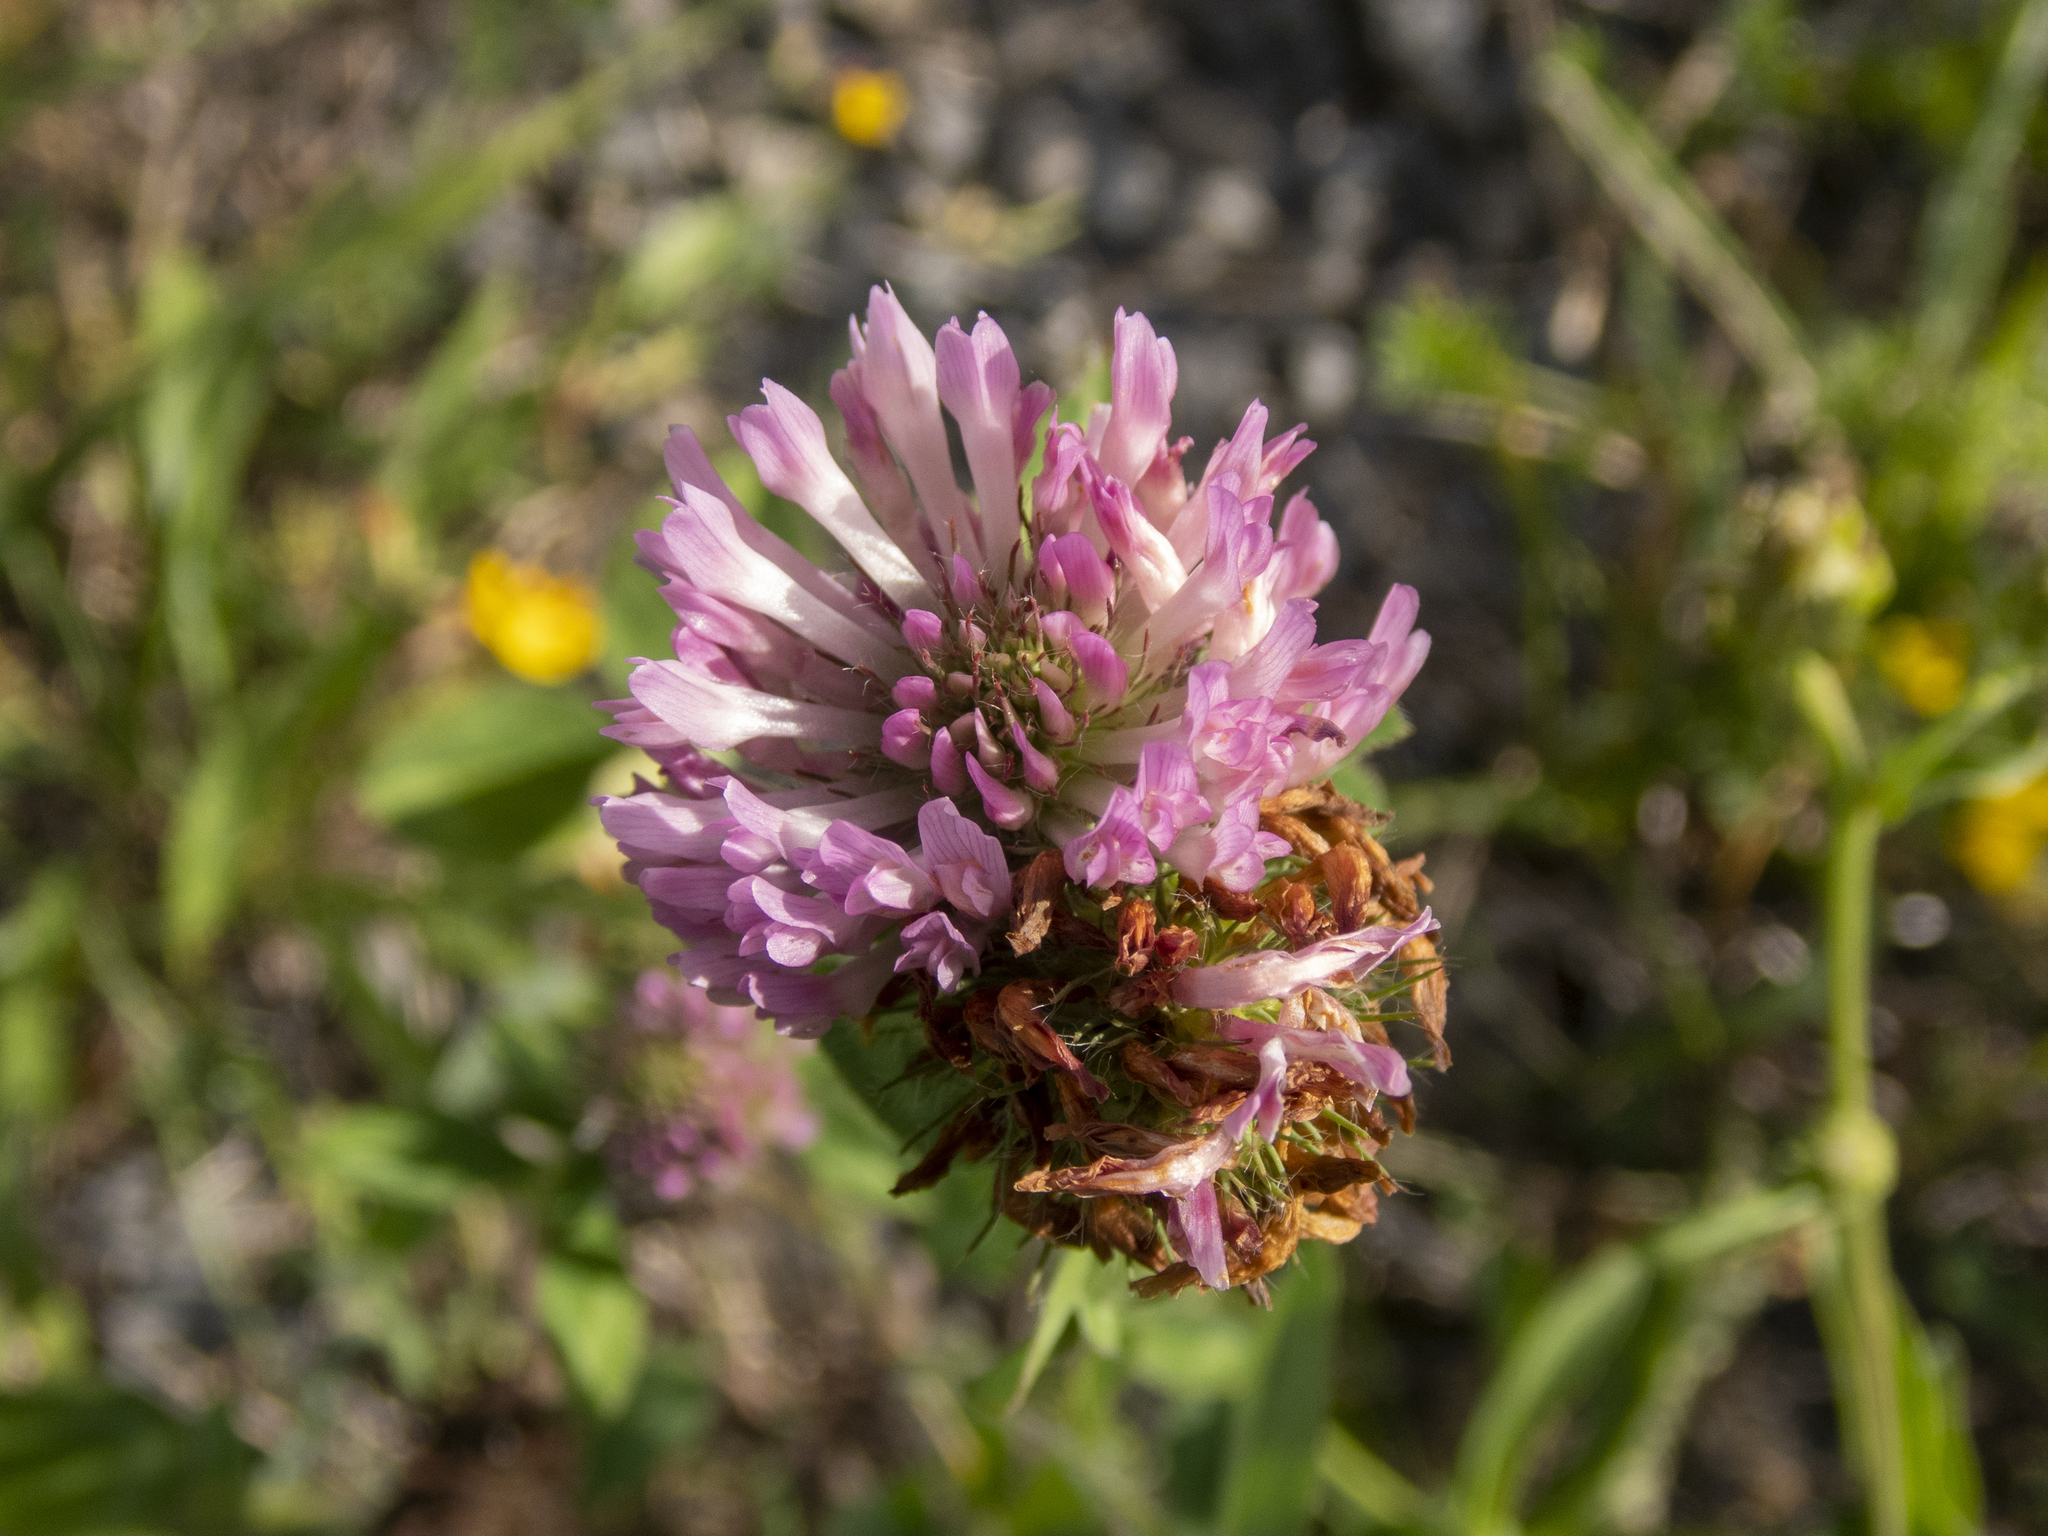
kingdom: Plantae
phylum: Tracheophyta
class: Magnoliopsida
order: Fabales
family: Fabaceae
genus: Trifolium
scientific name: Trifolium pratense
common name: Red clover
